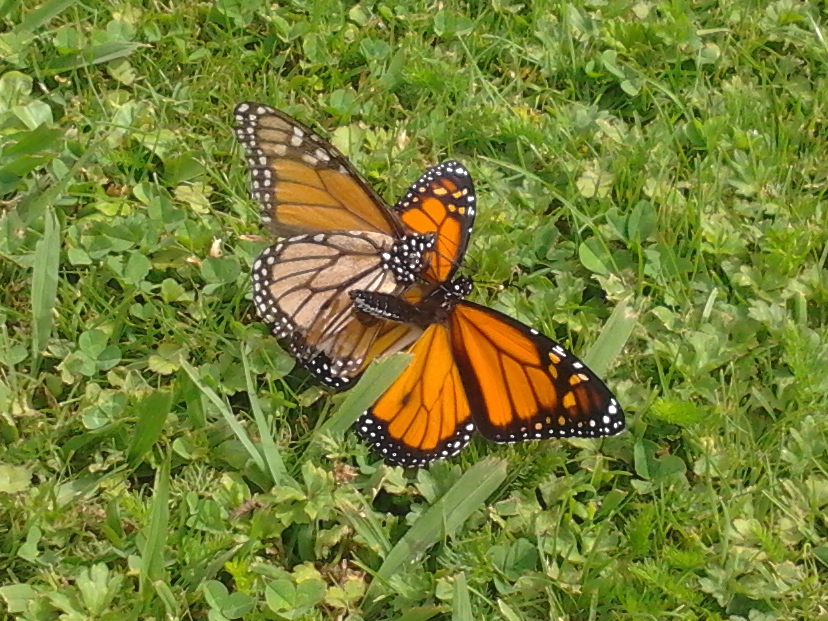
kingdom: Animalia
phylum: Arthropoda
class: Insecta
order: Lepidoptera
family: Nymphalidae
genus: Danaus
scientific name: Danaus plexippus
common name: Monarch
